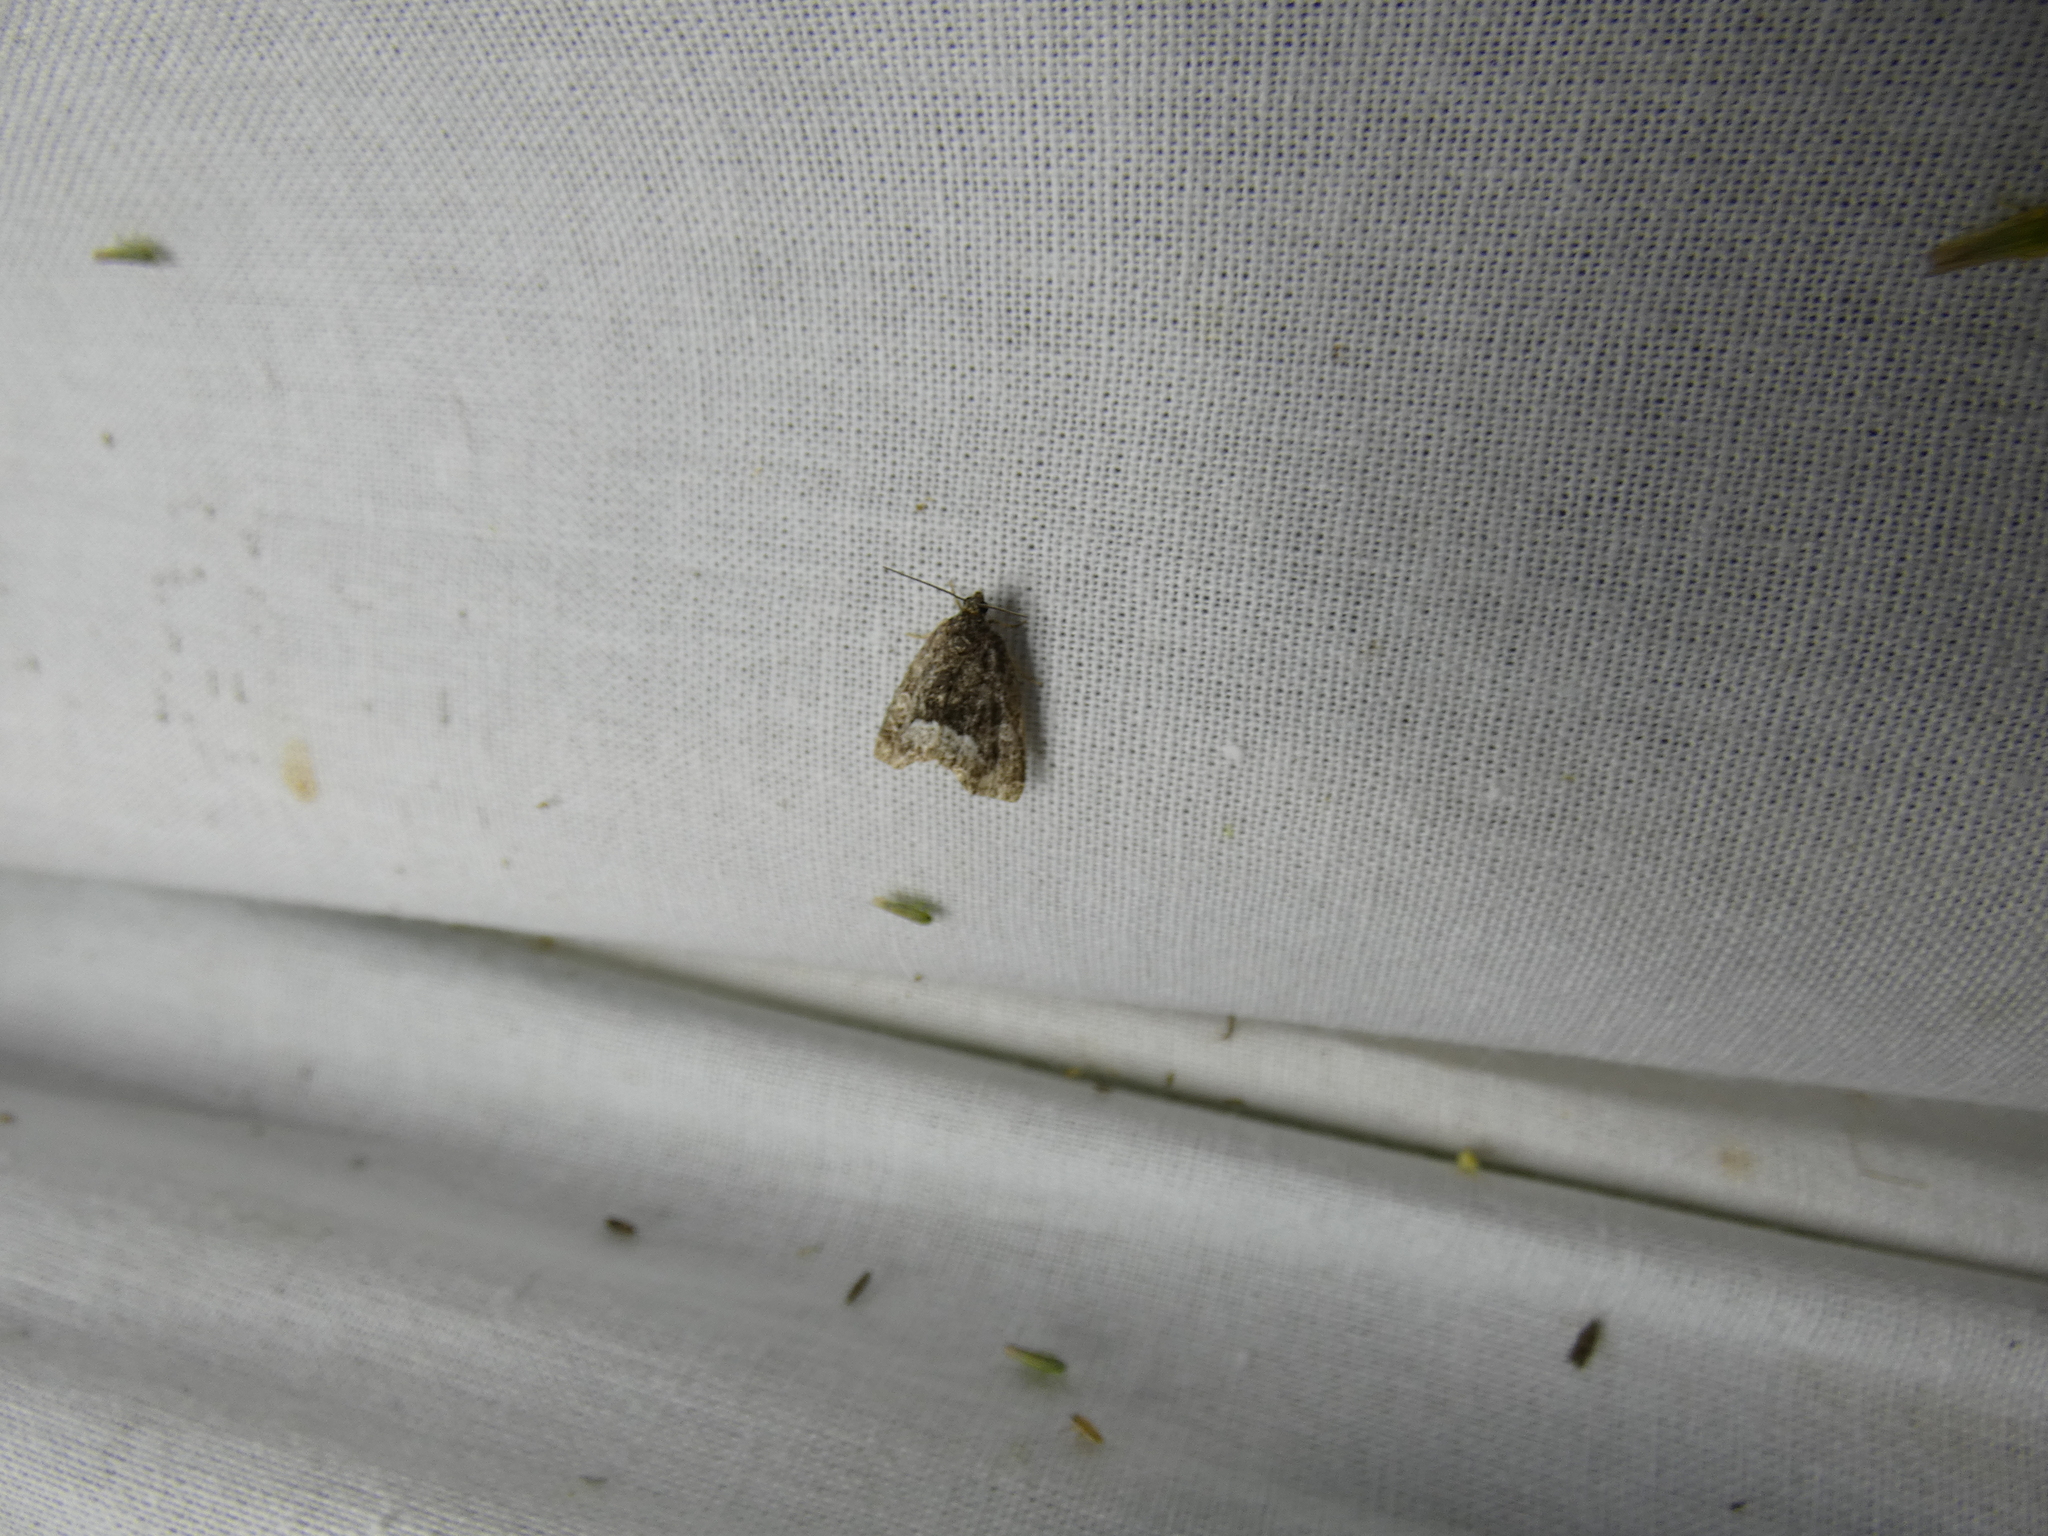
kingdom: Animalia
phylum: Arthropoda
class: Insecta
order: Lepidoptera
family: Noctuidae
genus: Deltote
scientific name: Deltote pygarga
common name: Marbled white spot
